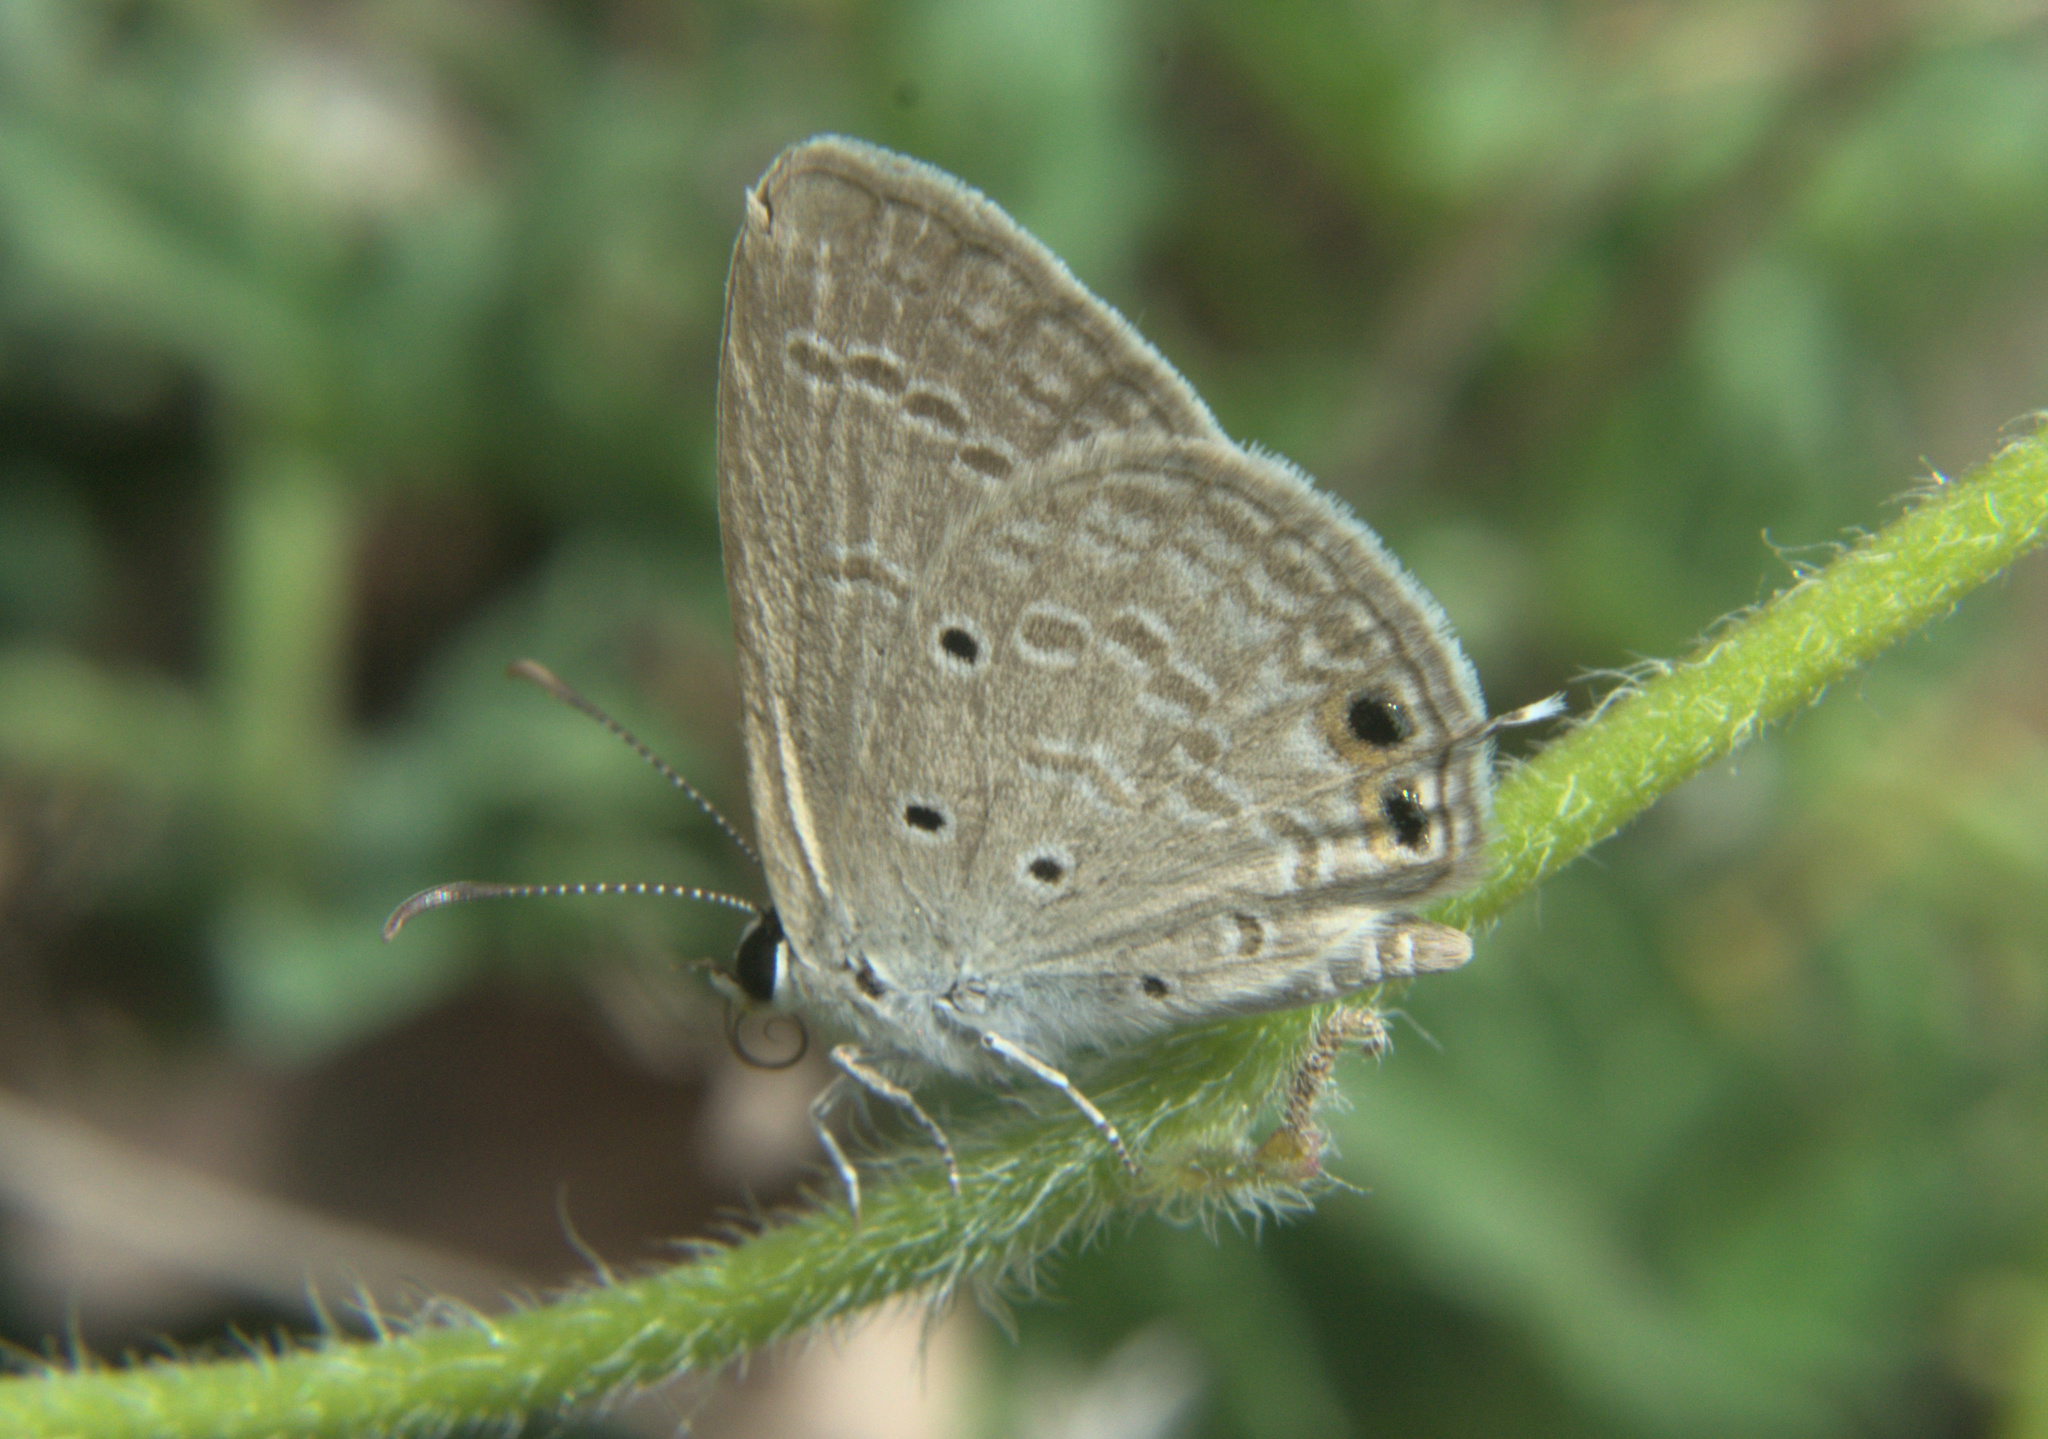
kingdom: Animalia
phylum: Arthropoda
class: Insecta
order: Lepidoptera
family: Lycaenidae
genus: Euchrysops
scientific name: Euchrysops cnejus
